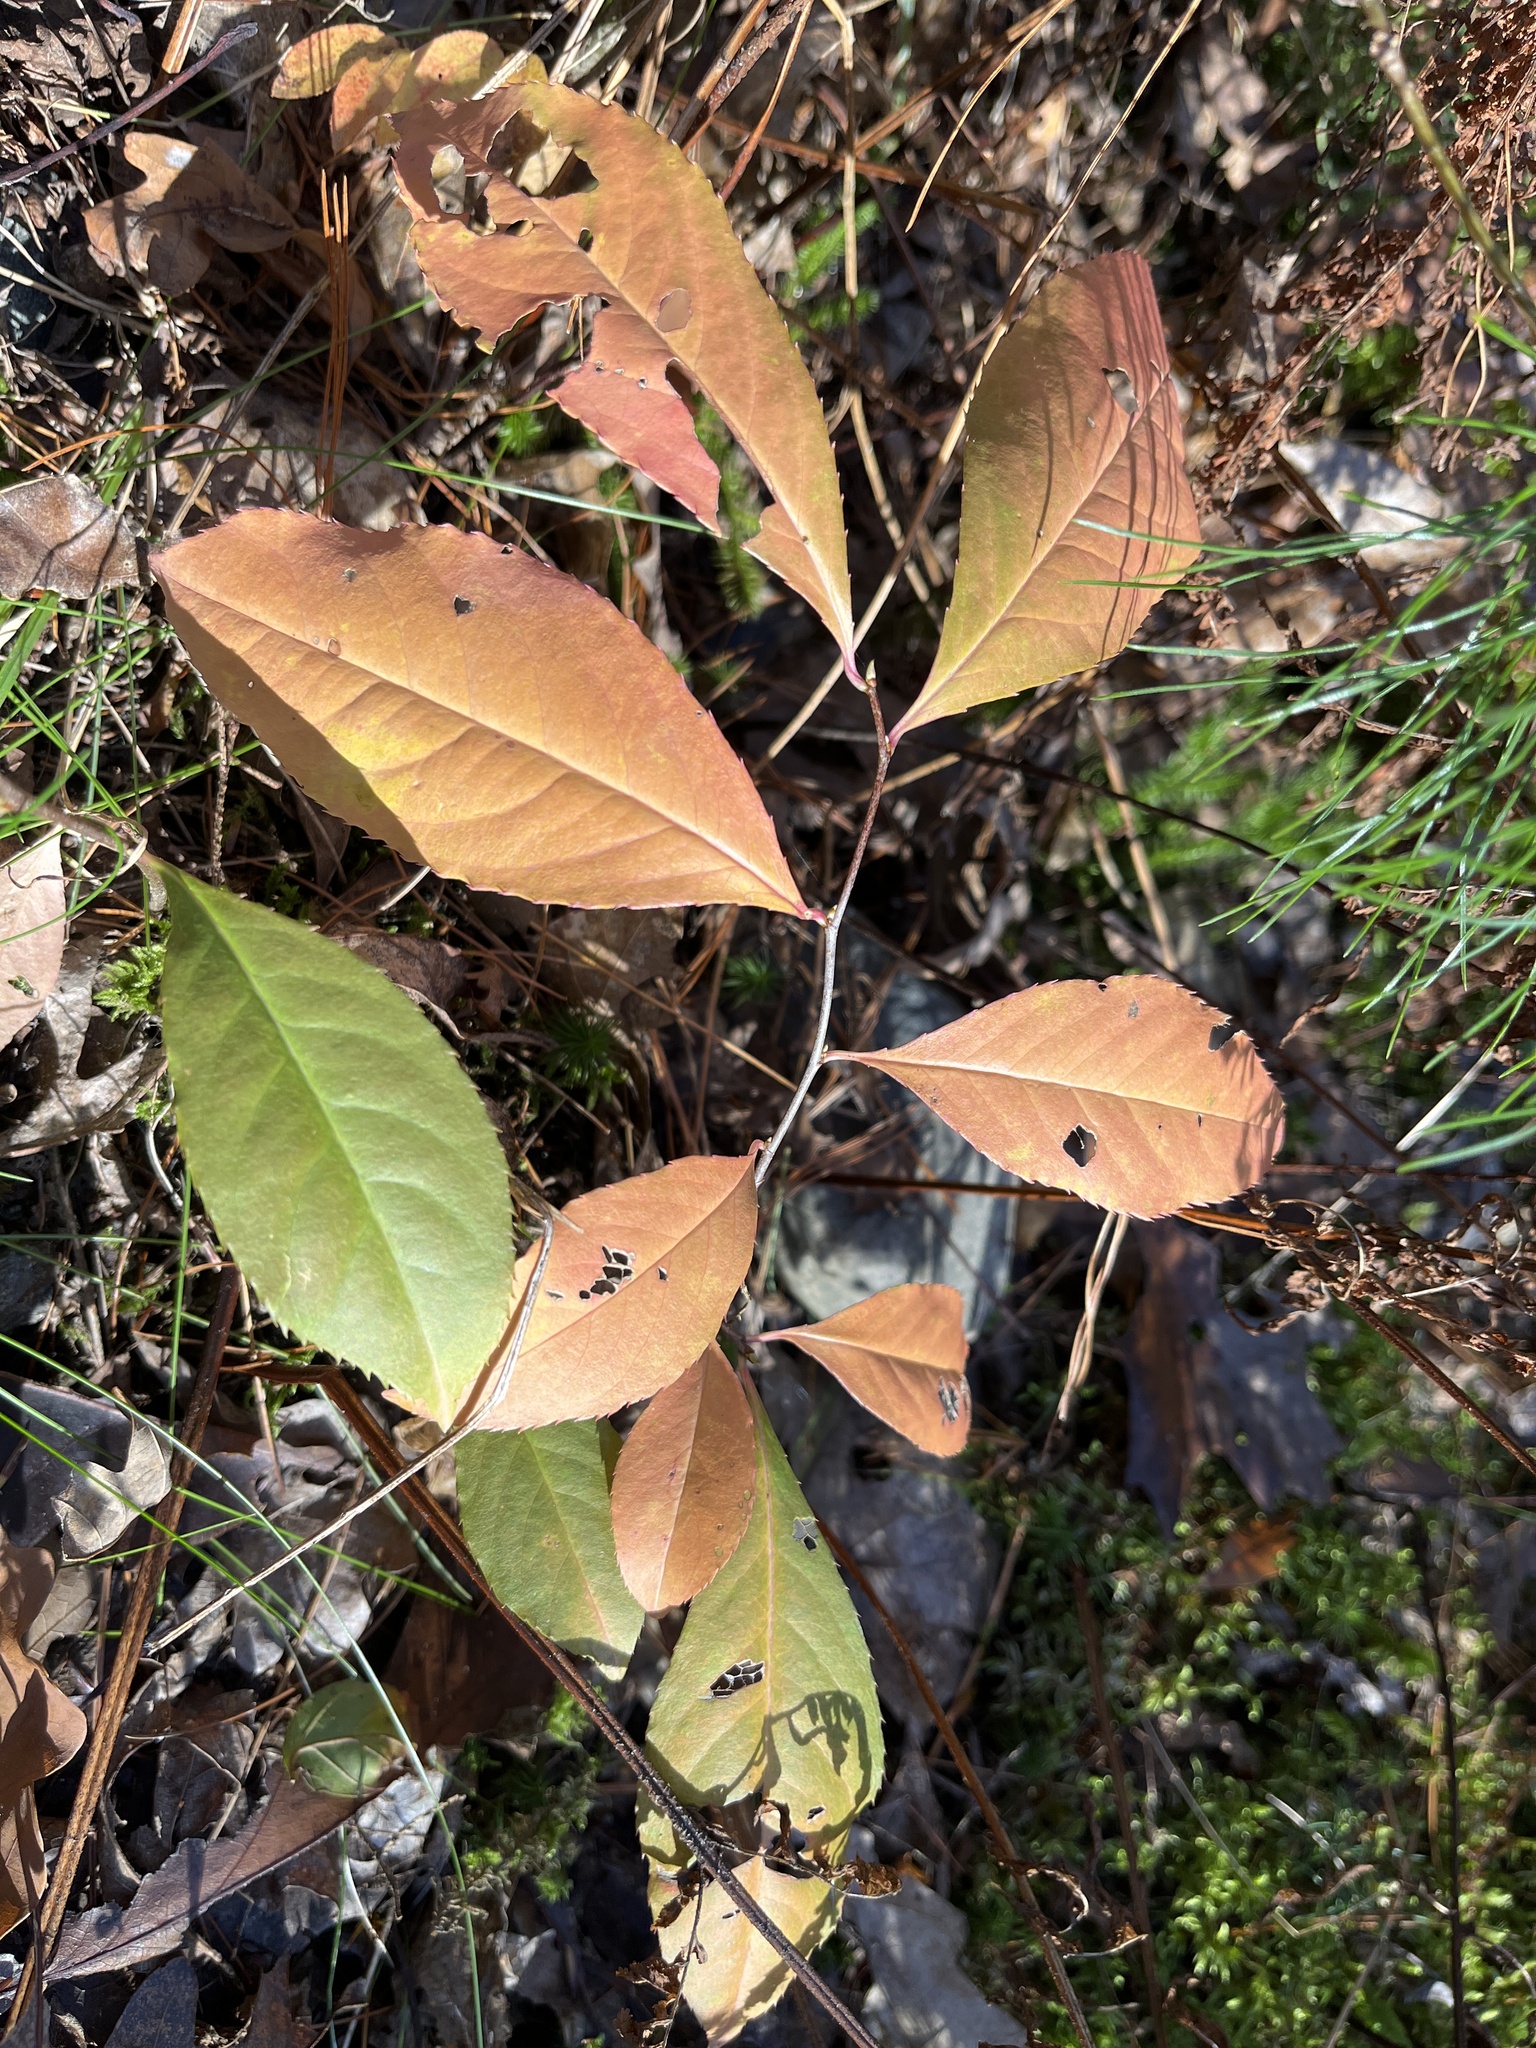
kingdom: Plantae
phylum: Tracheophyta
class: Magnoliopsida
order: Rosales
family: Rosaceae
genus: Prunus
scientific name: Prunus serotina
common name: Black cherry
